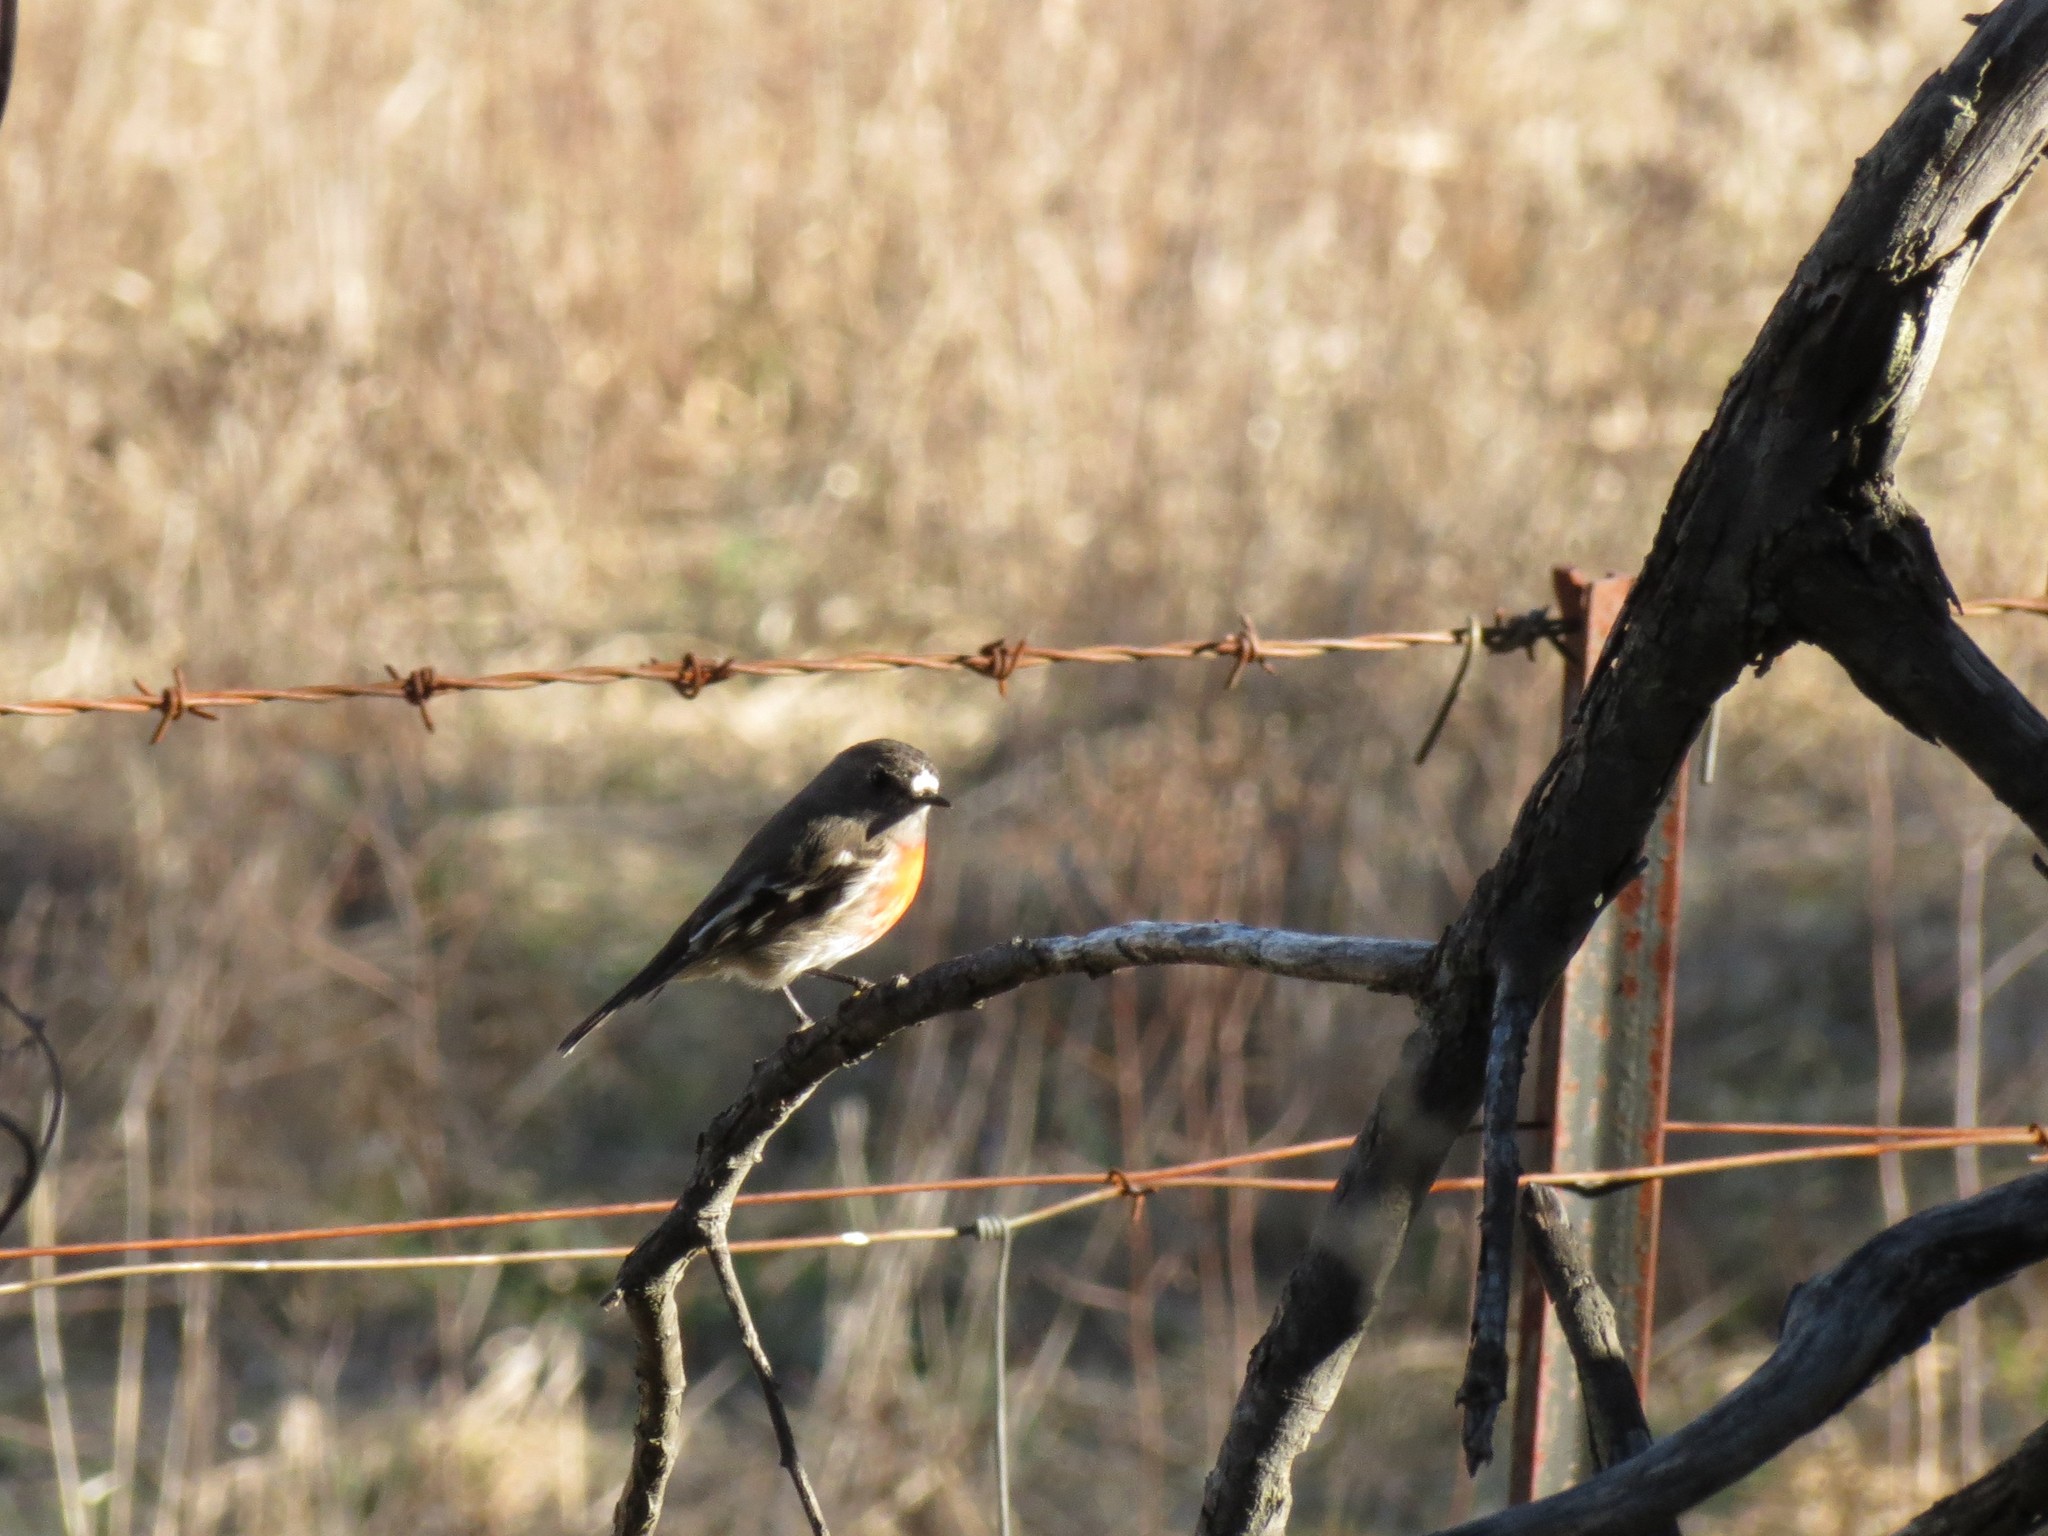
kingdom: Animalia
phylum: Chordata
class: Aves
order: Passeriformes
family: Petroicidae
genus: Petroica
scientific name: Petroica boodang
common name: Scarlet robin
